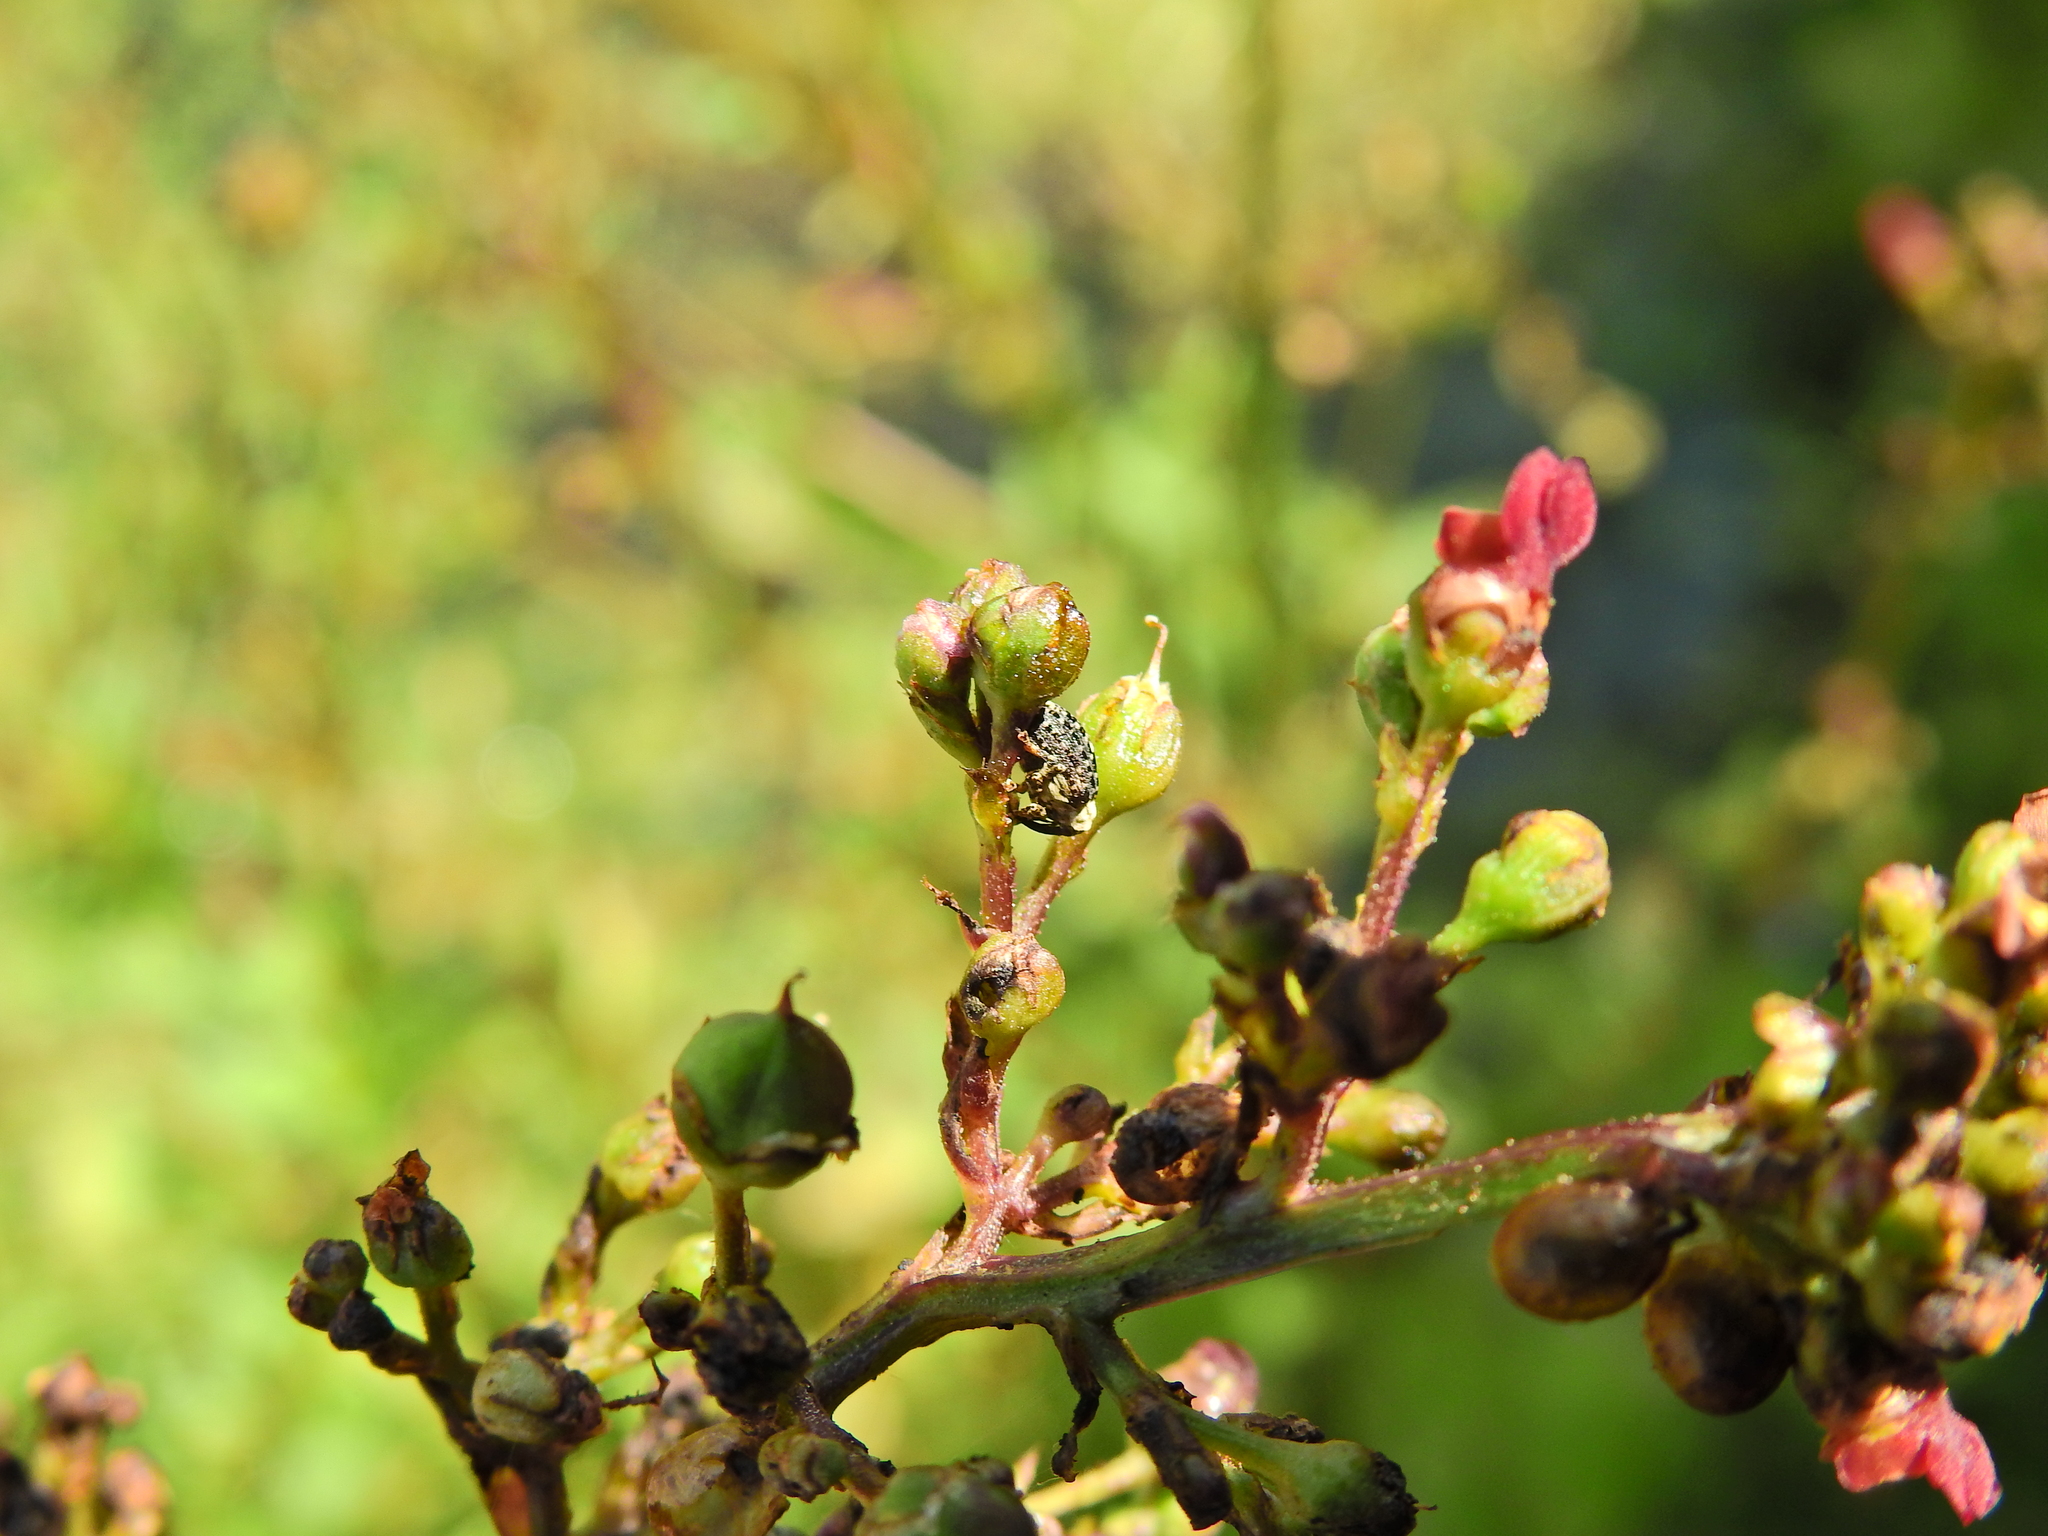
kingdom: Animalia
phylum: Arthropoda
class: Insecta
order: Coleoptera
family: Curculionidae
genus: Cionus
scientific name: Cionus scrophulariae
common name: Common figwort weevil
